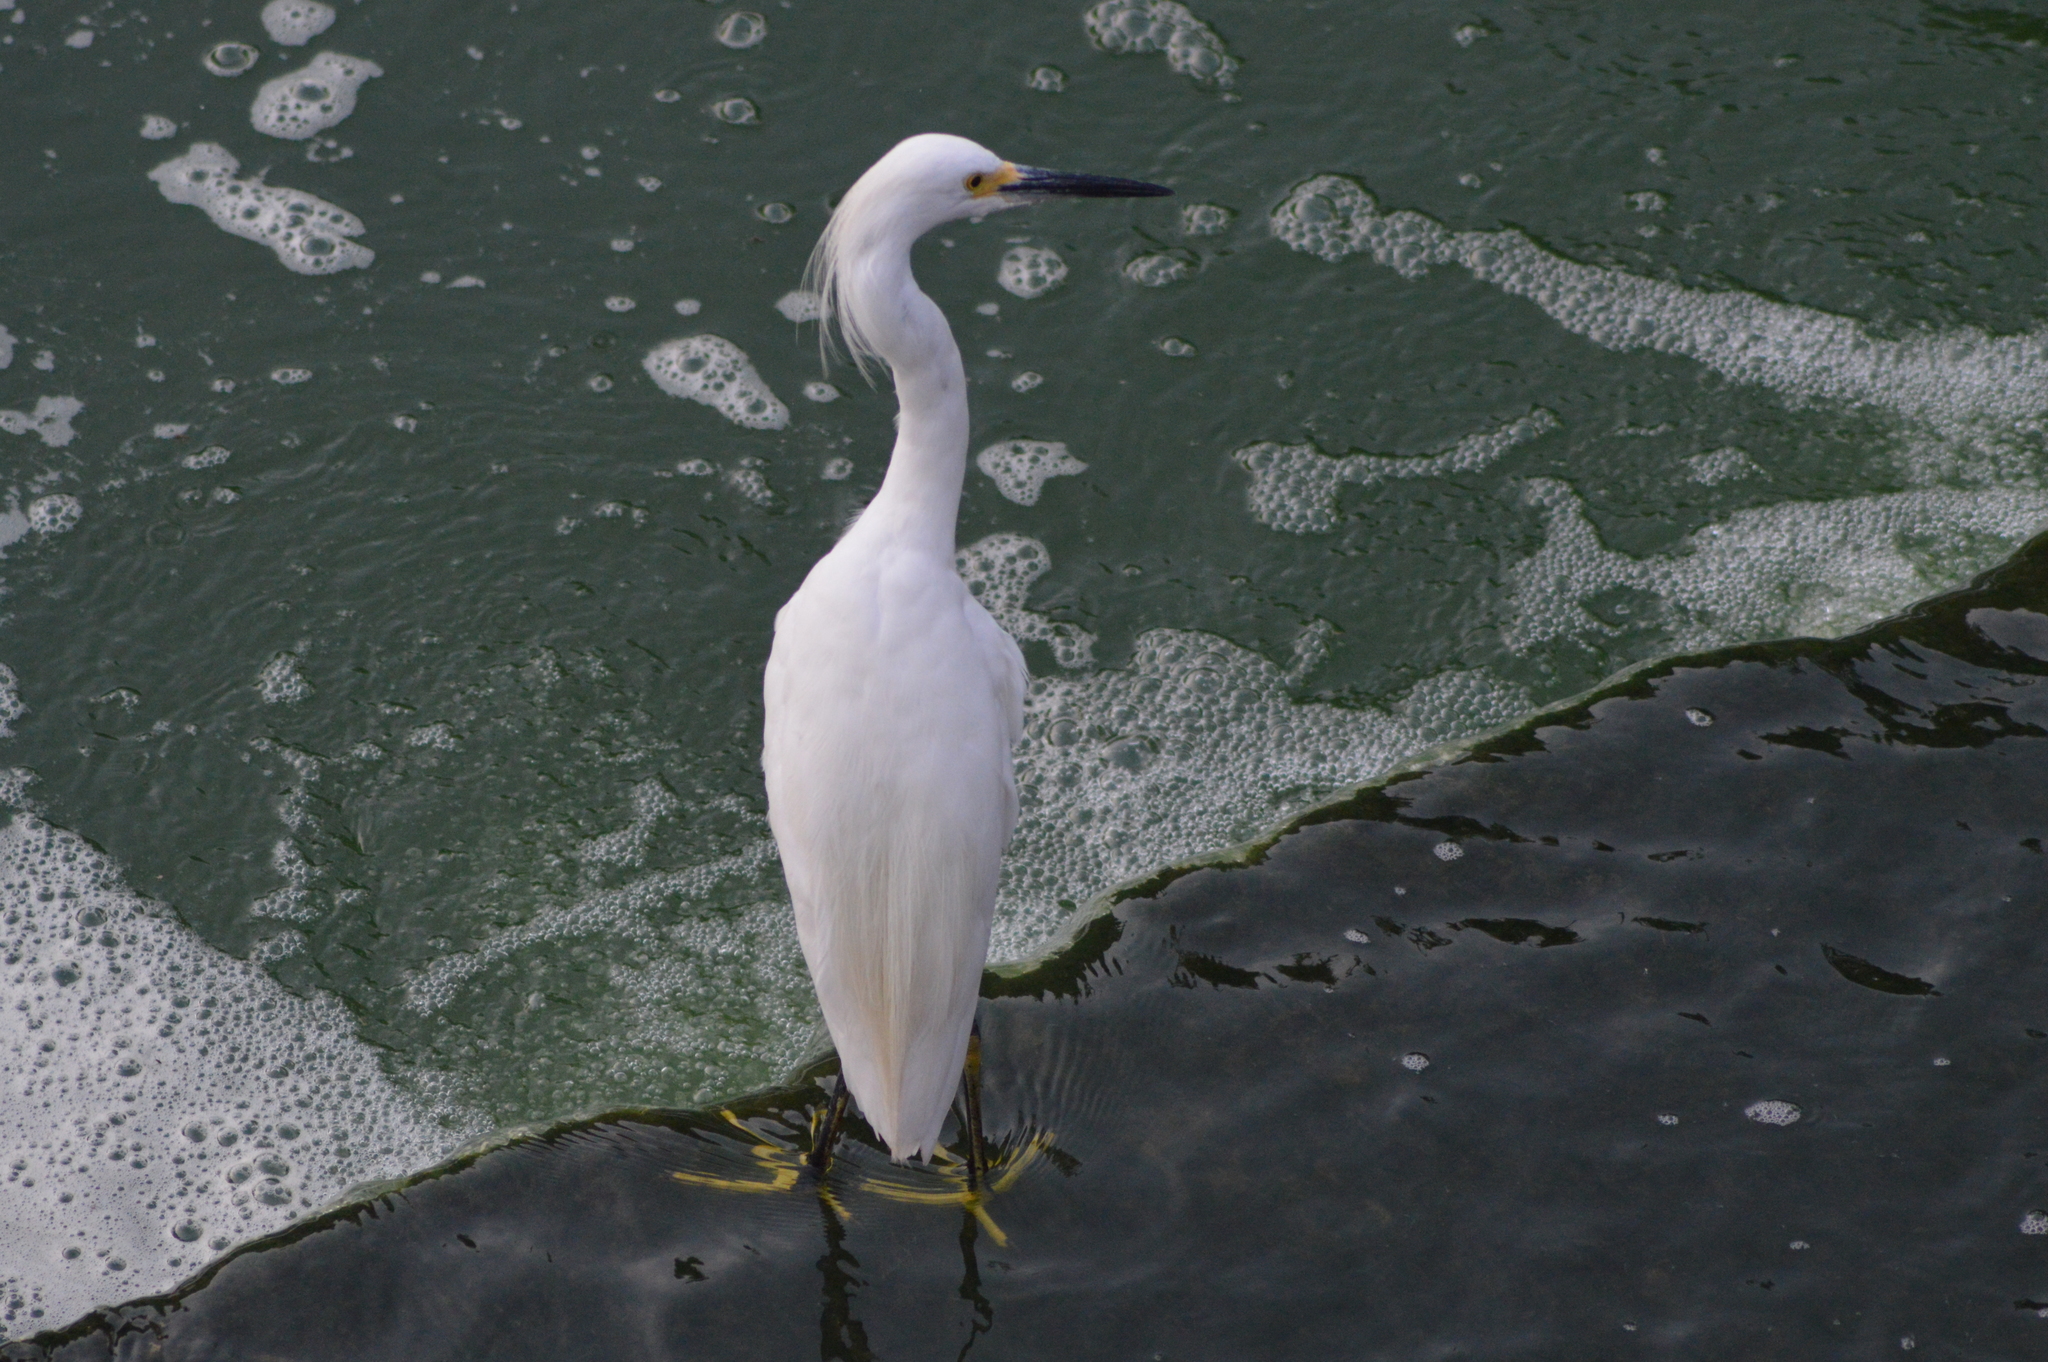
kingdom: Animalia
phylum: Chordata
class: Aves
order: Pelecaniformes
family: Ardeidae
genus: Egretta
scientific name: Egretta thula
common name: Snowy egret
